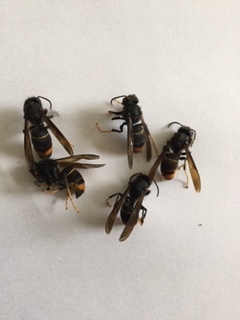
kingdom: Animalia
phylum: Arthropoda
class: Insecta
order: Hymenoptera
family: Vespidae
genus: Vespa
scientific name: Vespa velutina
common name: Asian hornet
